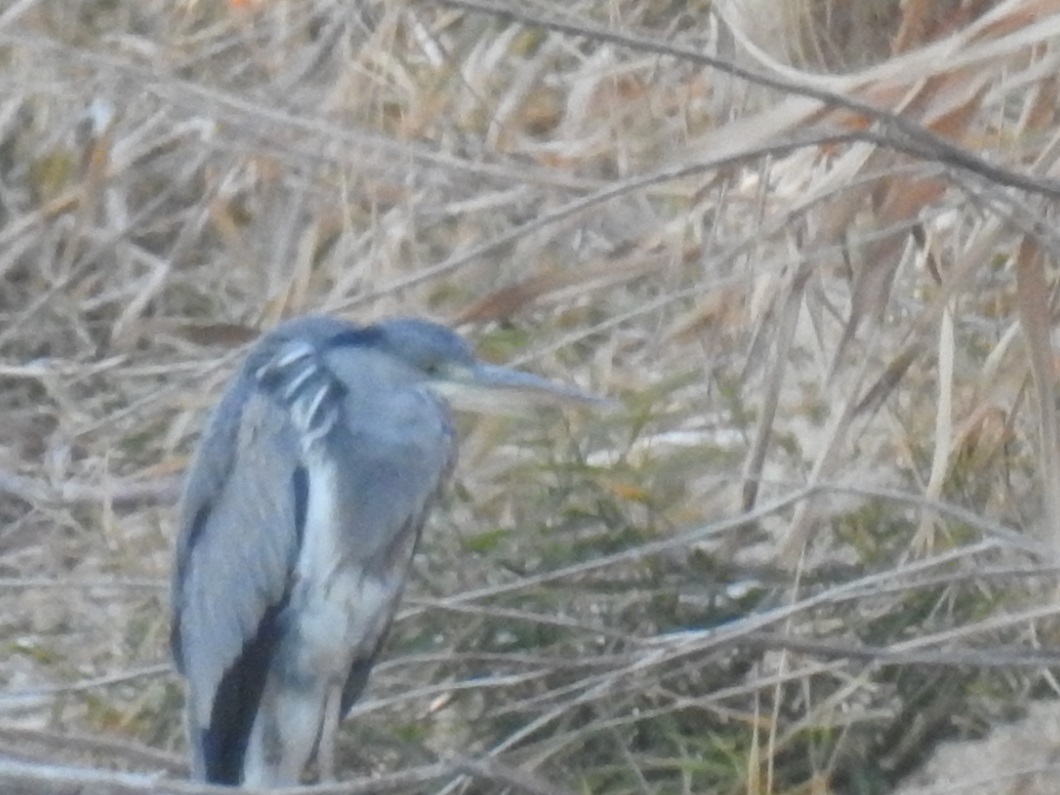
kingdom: Animalia
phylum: Chordata
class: Aves
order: Pelecaniformes
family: Ardeidae
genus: Ardea
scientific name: Ardea cinerea
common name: Grey heron
